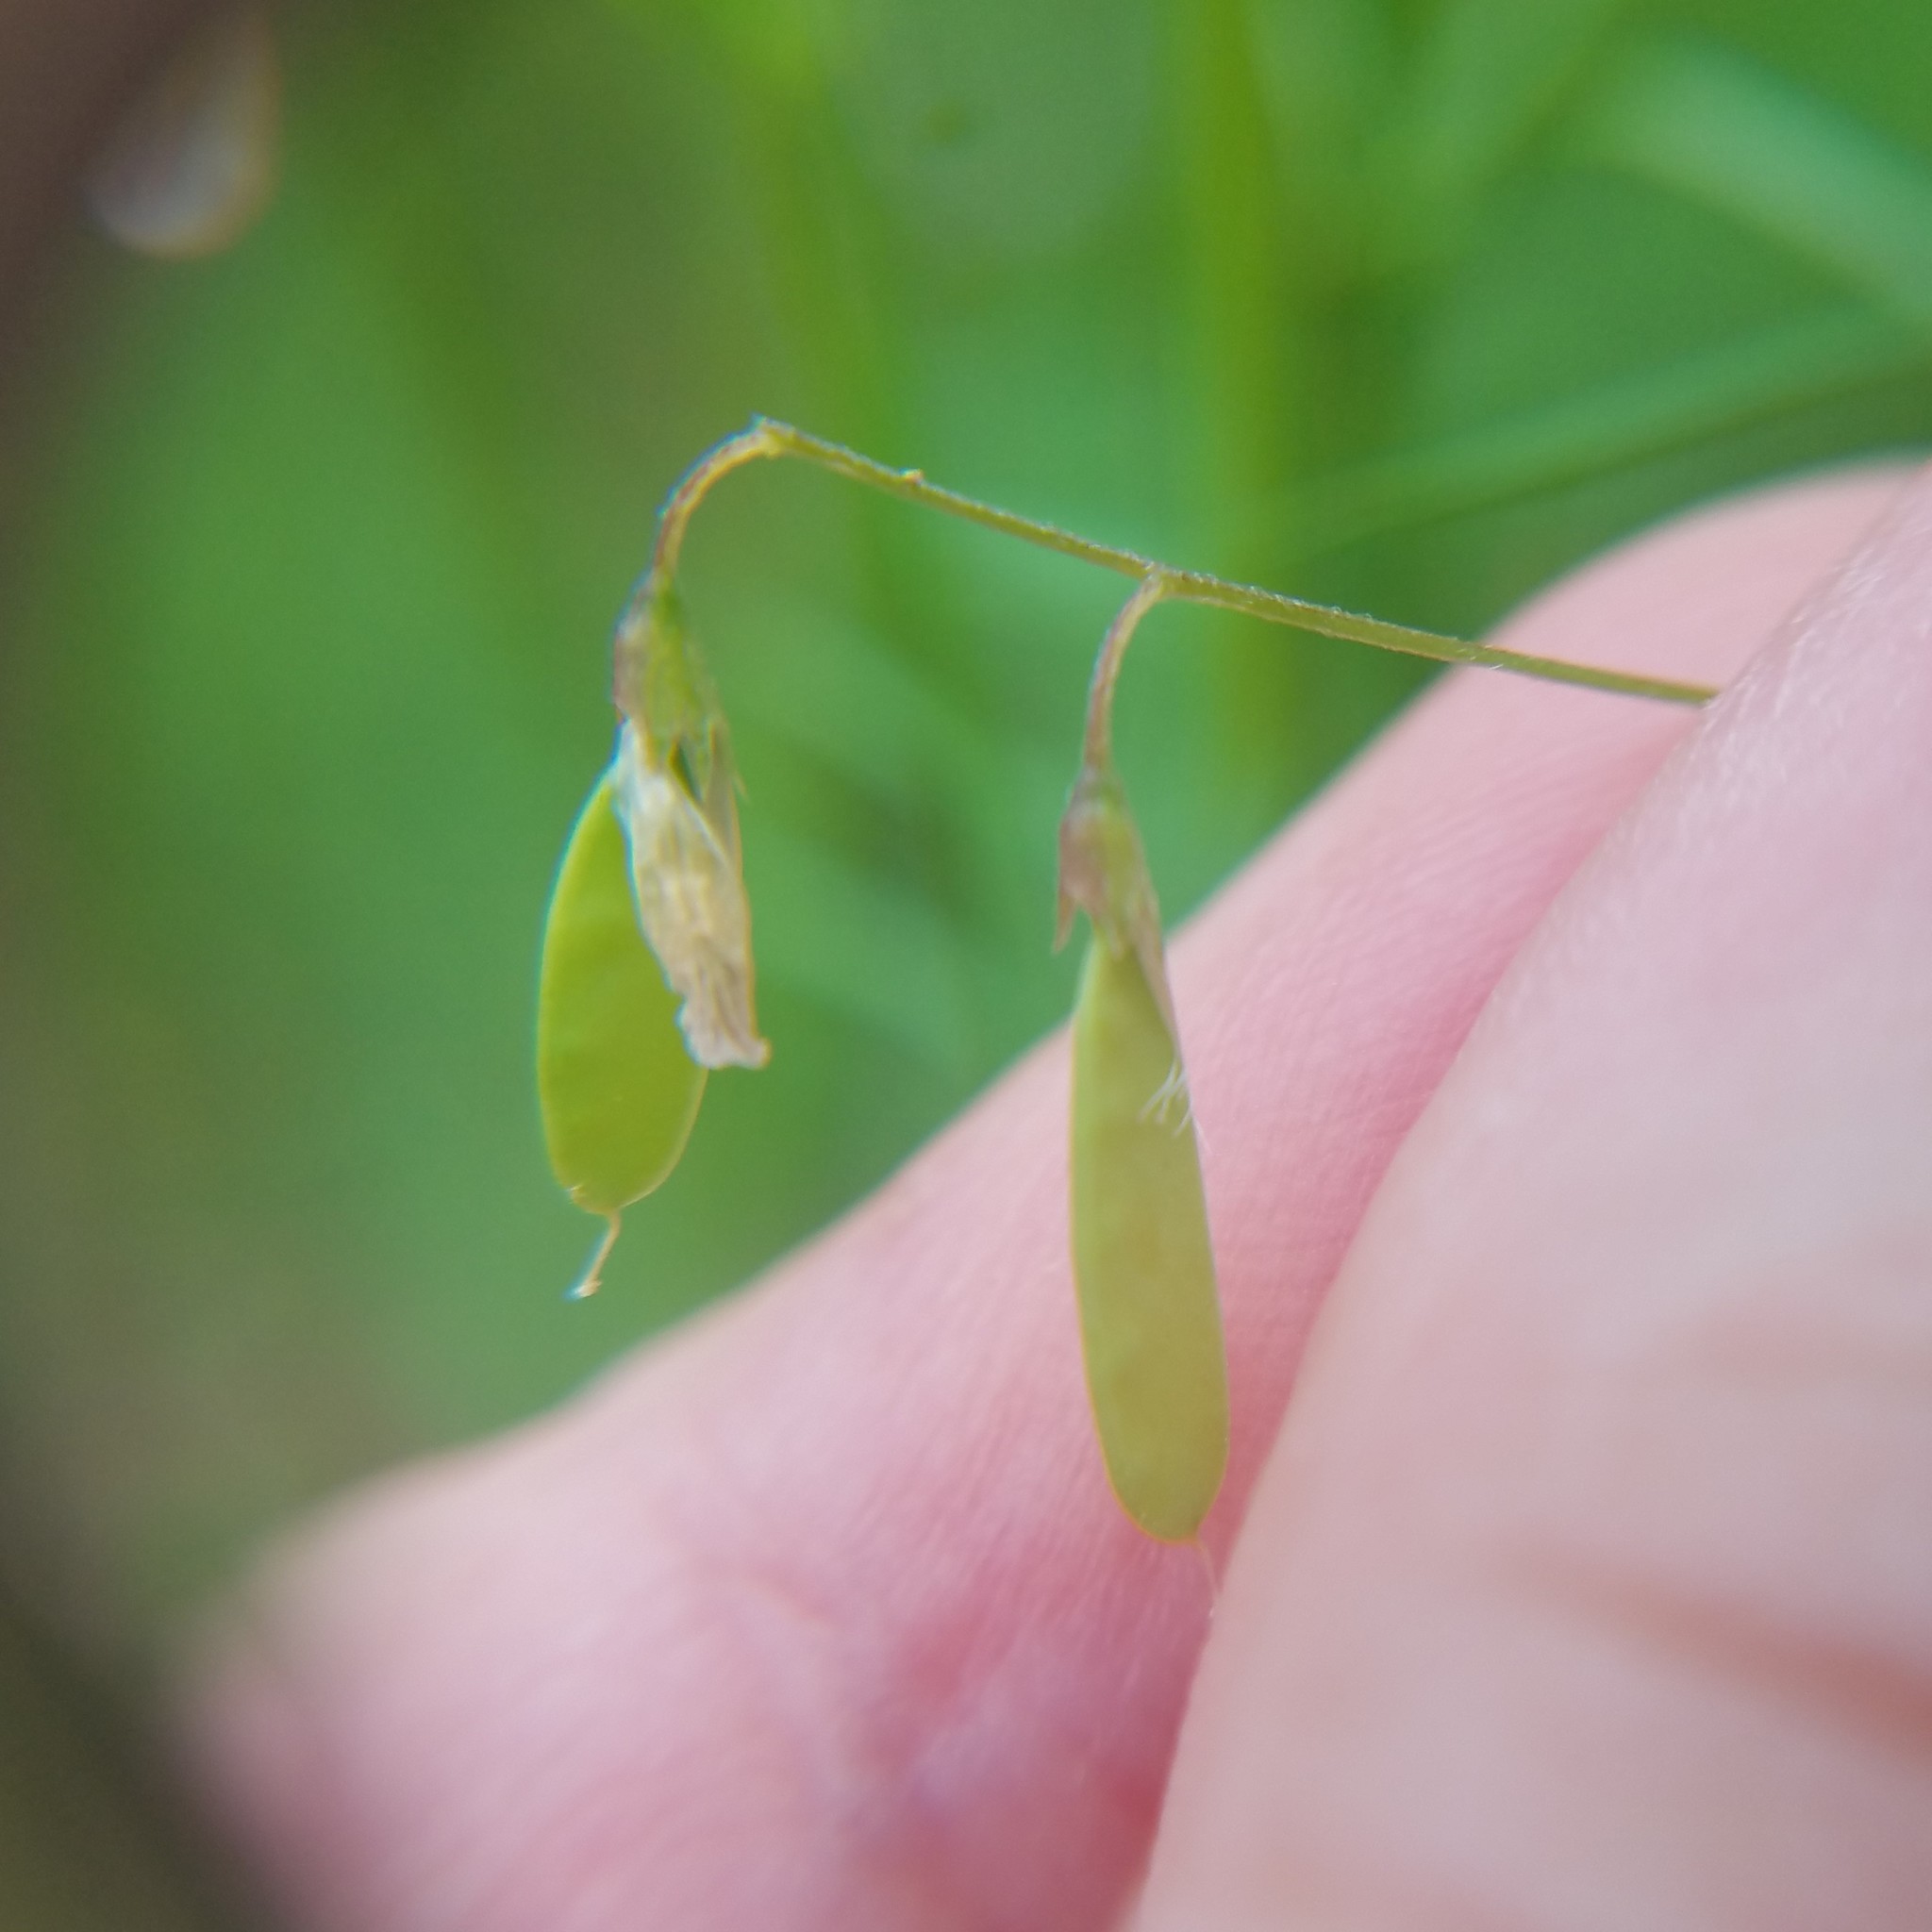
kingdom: Plantae
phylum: Tracheophyta
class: Magnoliopsida
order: Fabales
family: Fabaceae
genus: Vicia
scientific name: Vicia tetrasperma
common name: Smooth tare
